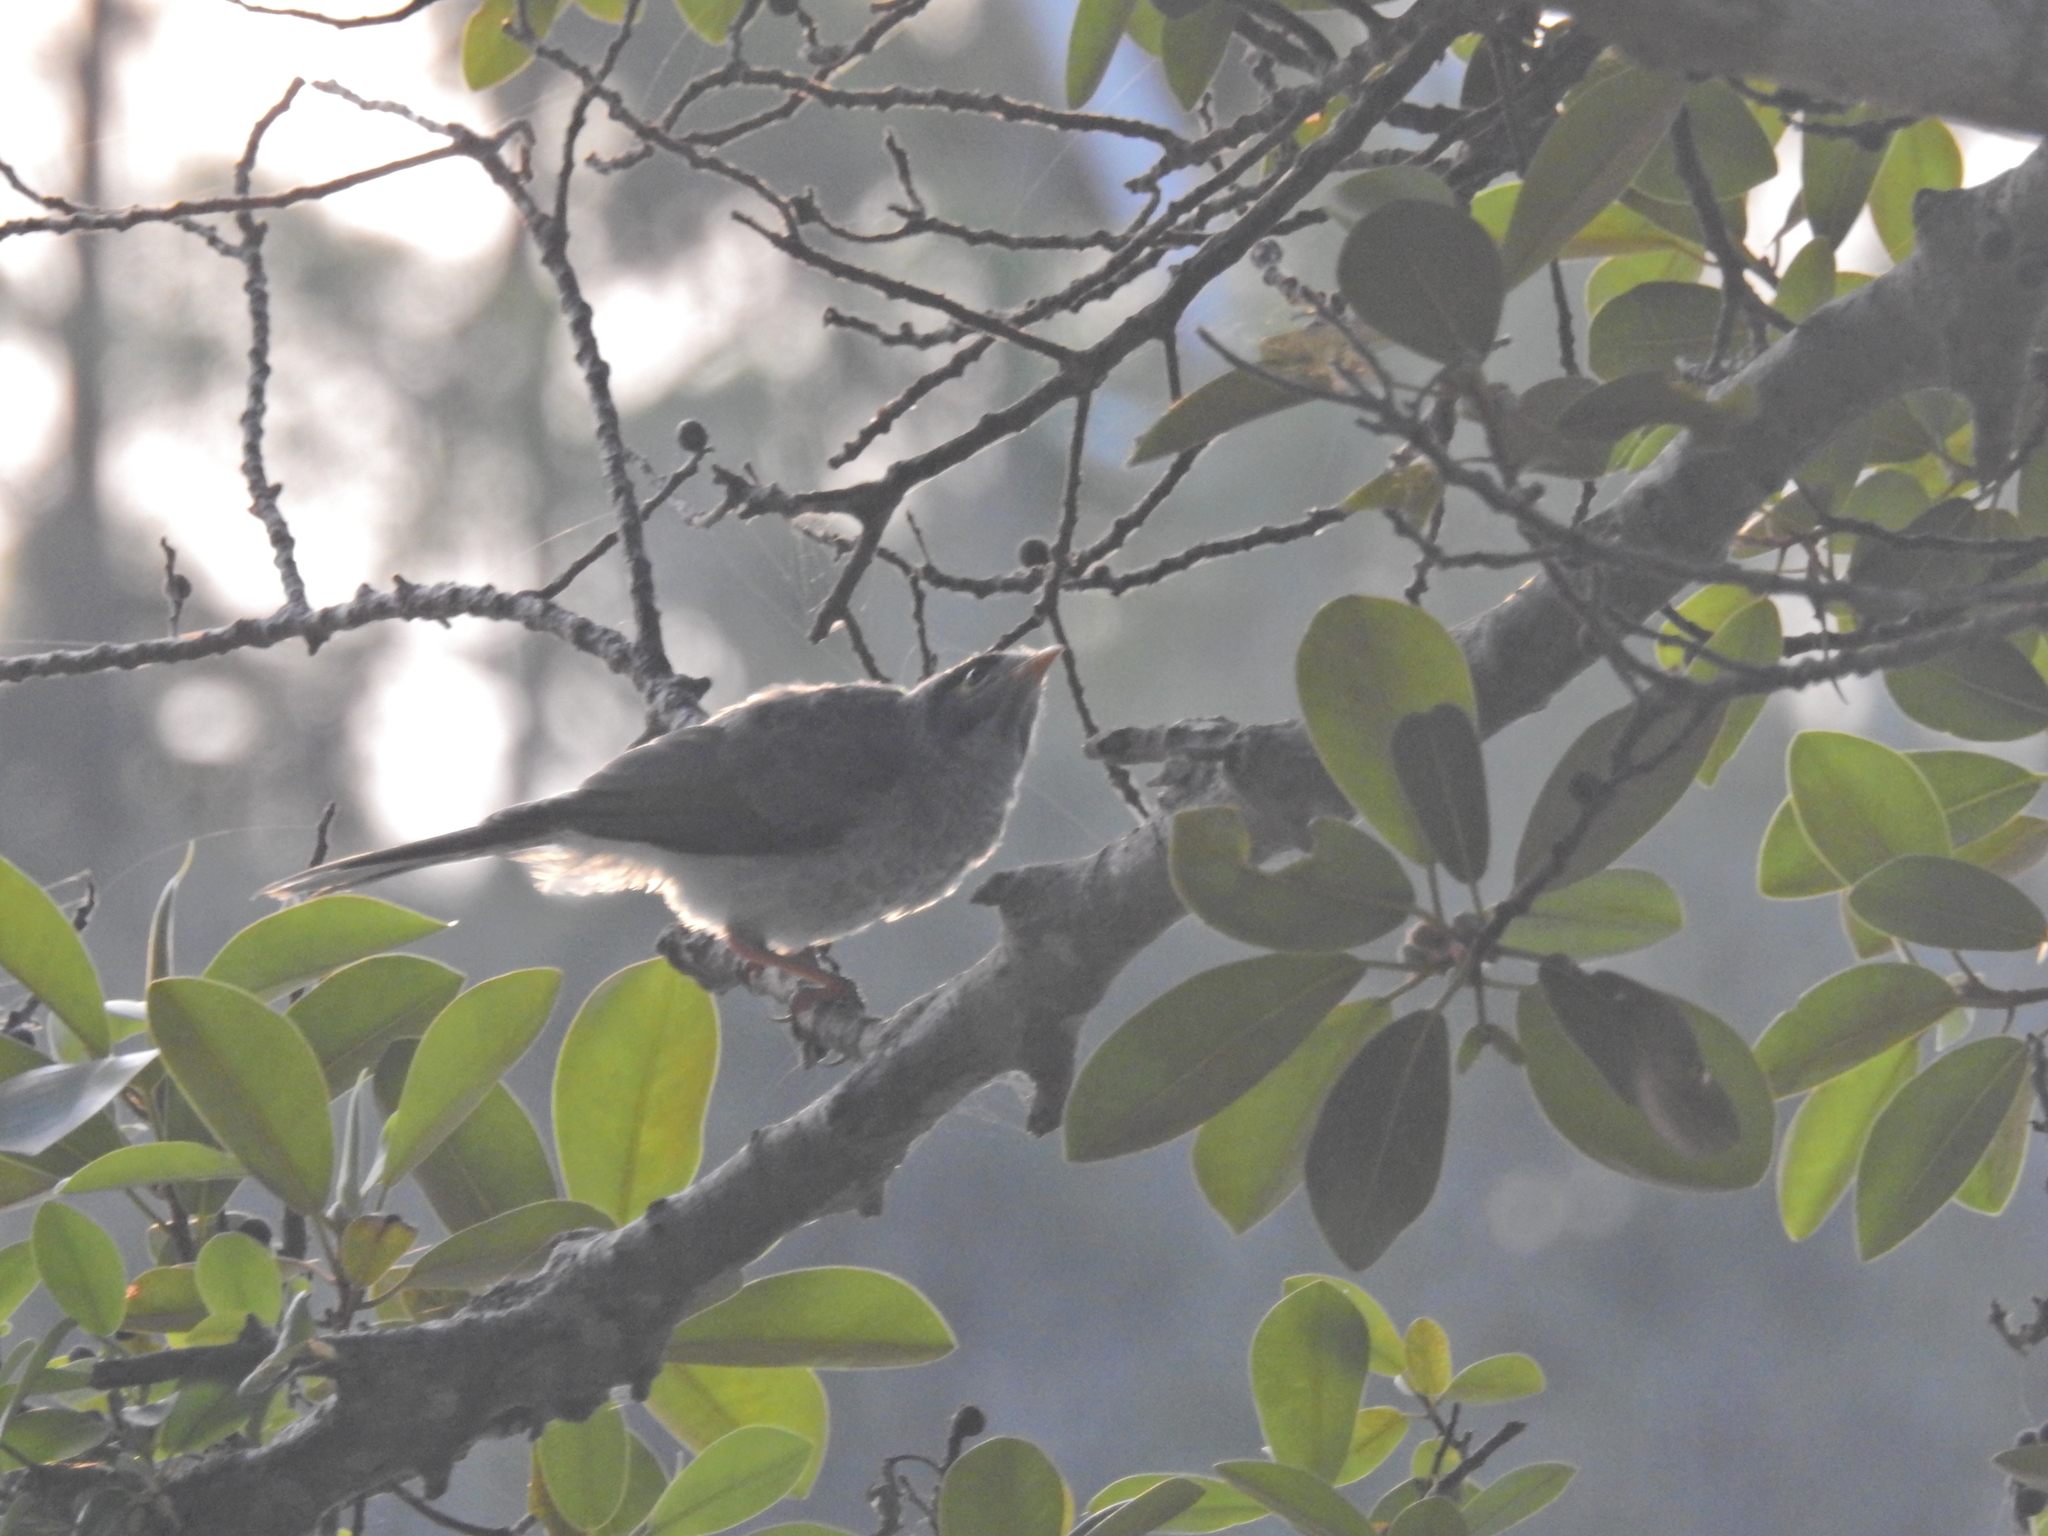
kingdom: Animalia
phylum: Chordata
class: Aves
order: Passeriformes
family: Meliphagidae
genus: Manorina
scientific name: Manorina melanocephala
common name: Noisy miner
